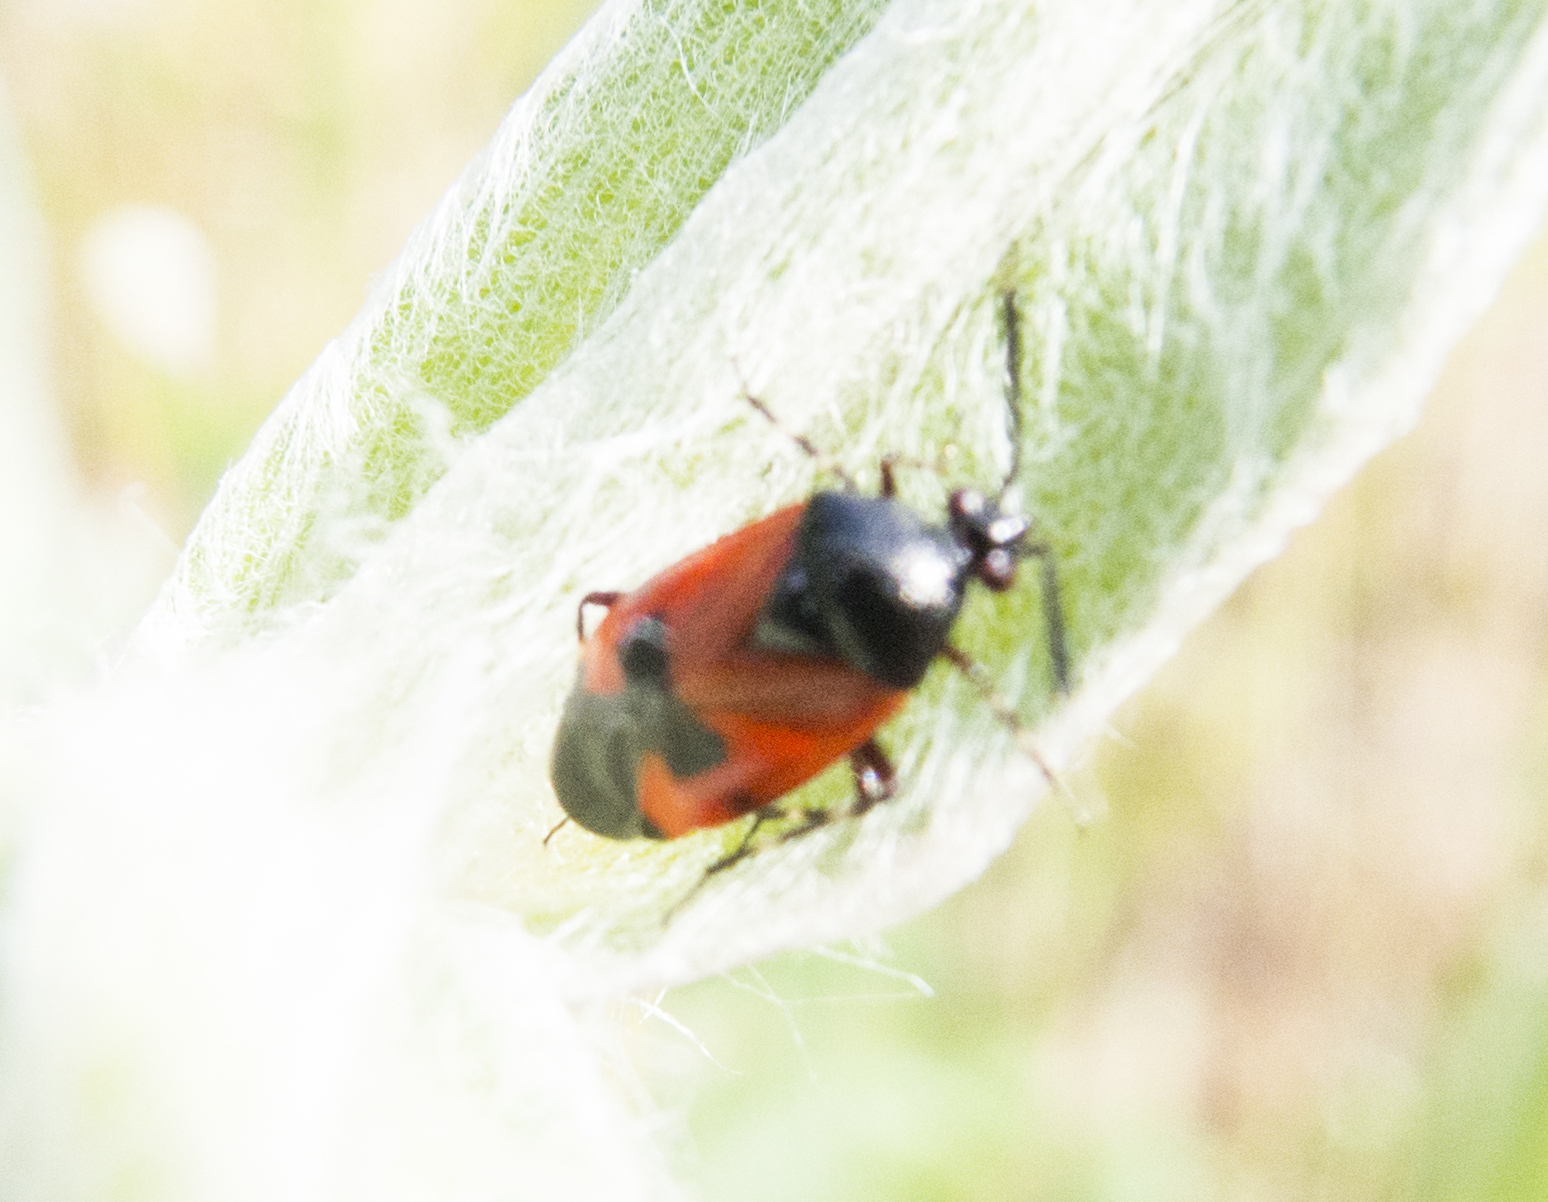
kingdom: Animalia
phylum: Arthropoda
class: Insecta
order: Hemiptera
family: Miridae
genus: Deraeocoris
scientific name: Deraeocoris rutilus
